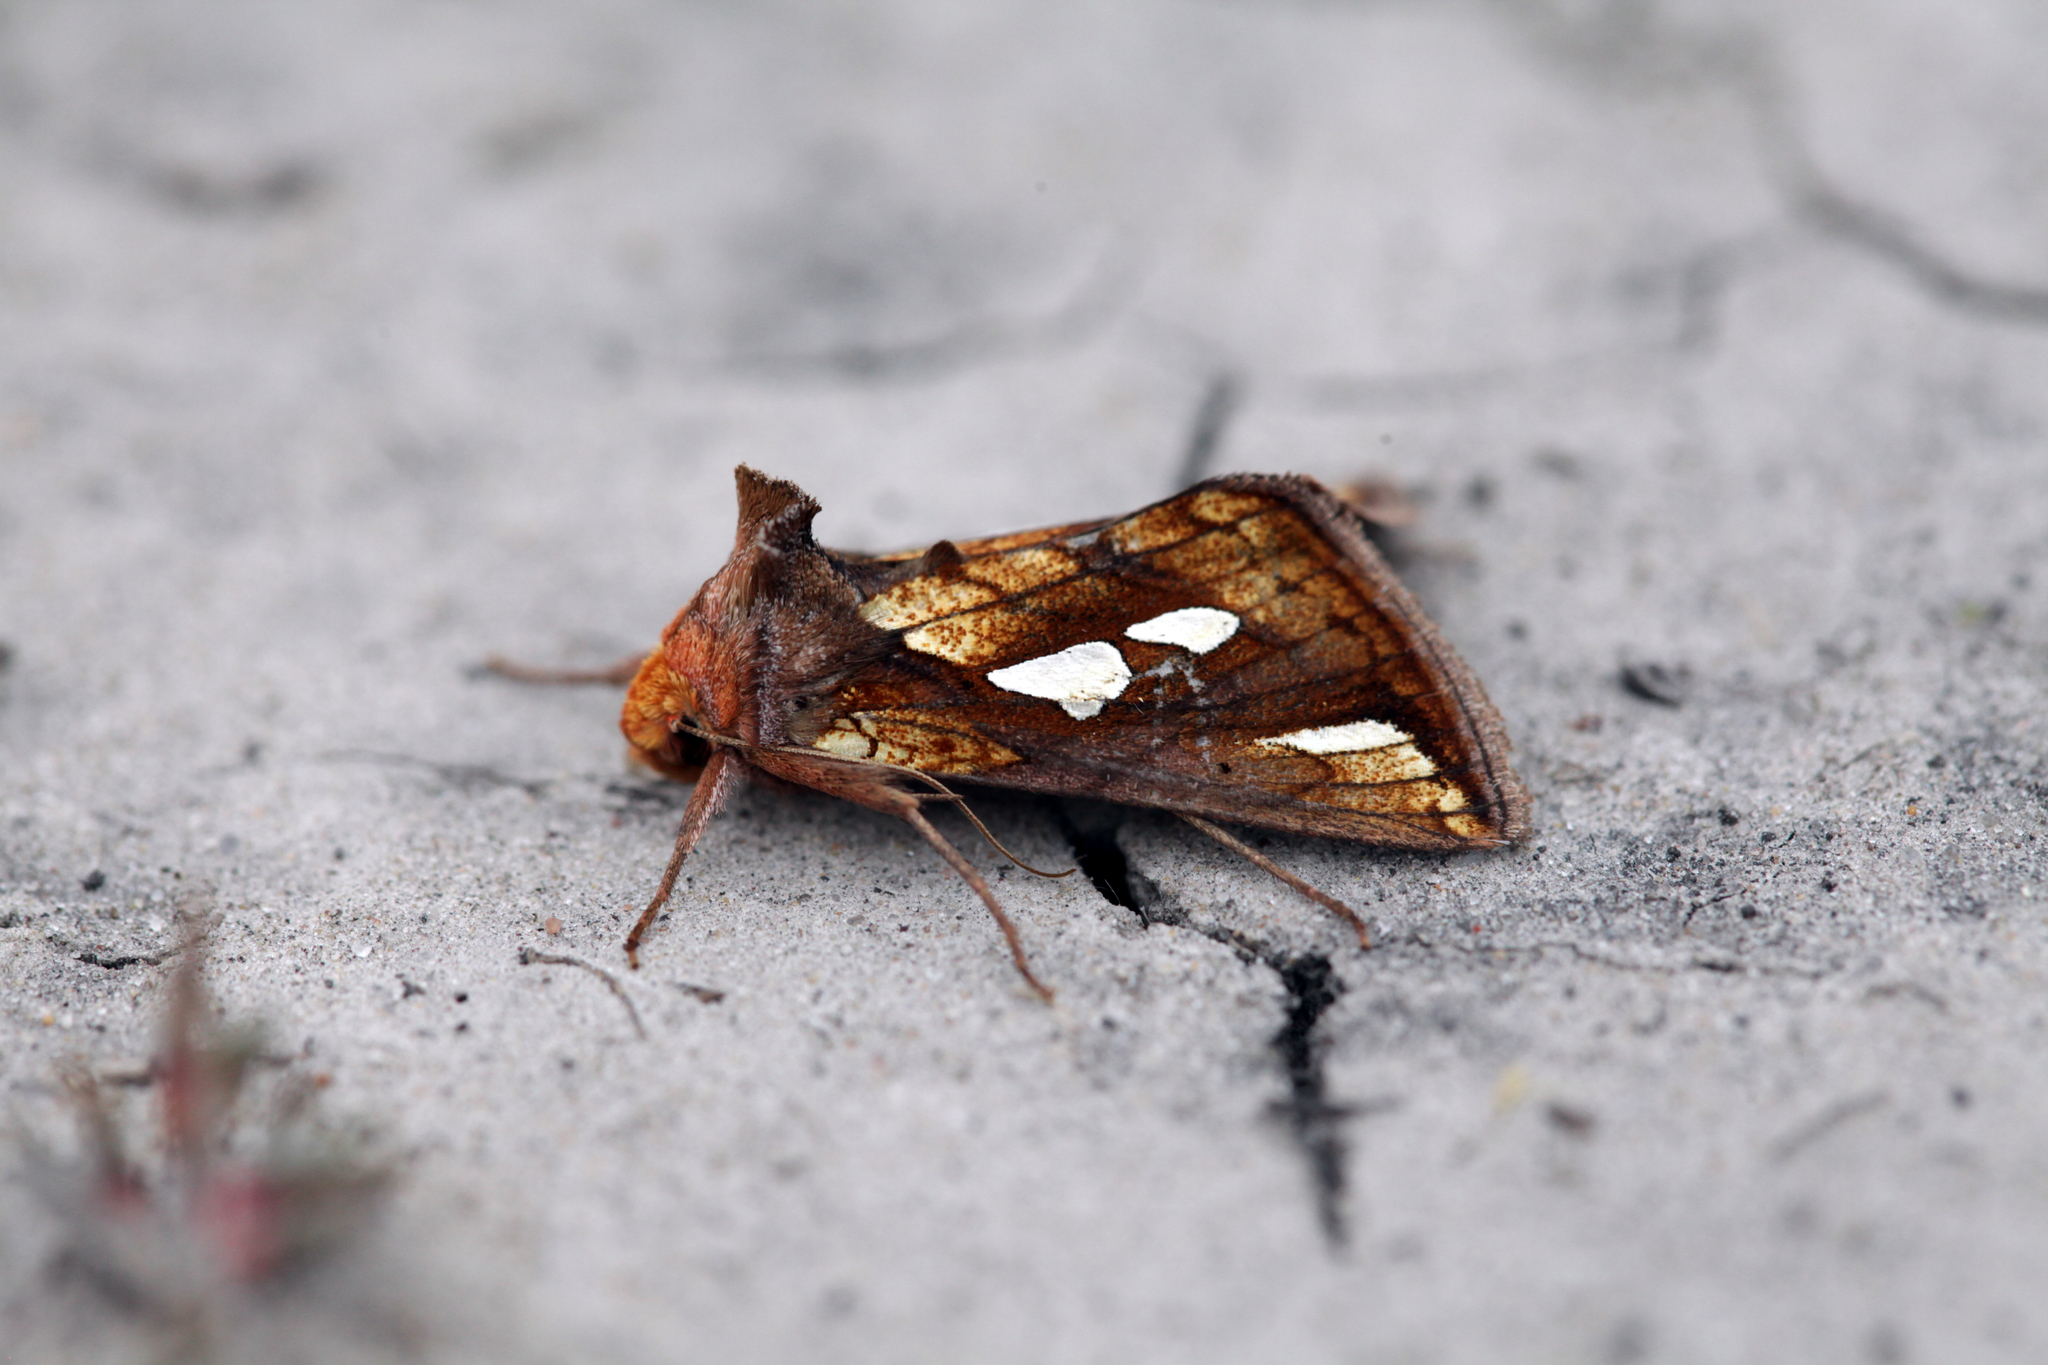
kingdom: Animalia
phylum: Arthropoda
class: Insecta
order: Lepidoptera
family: Noctuidae
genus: Plusia
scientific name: Plusia festucae
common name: Gold spot
